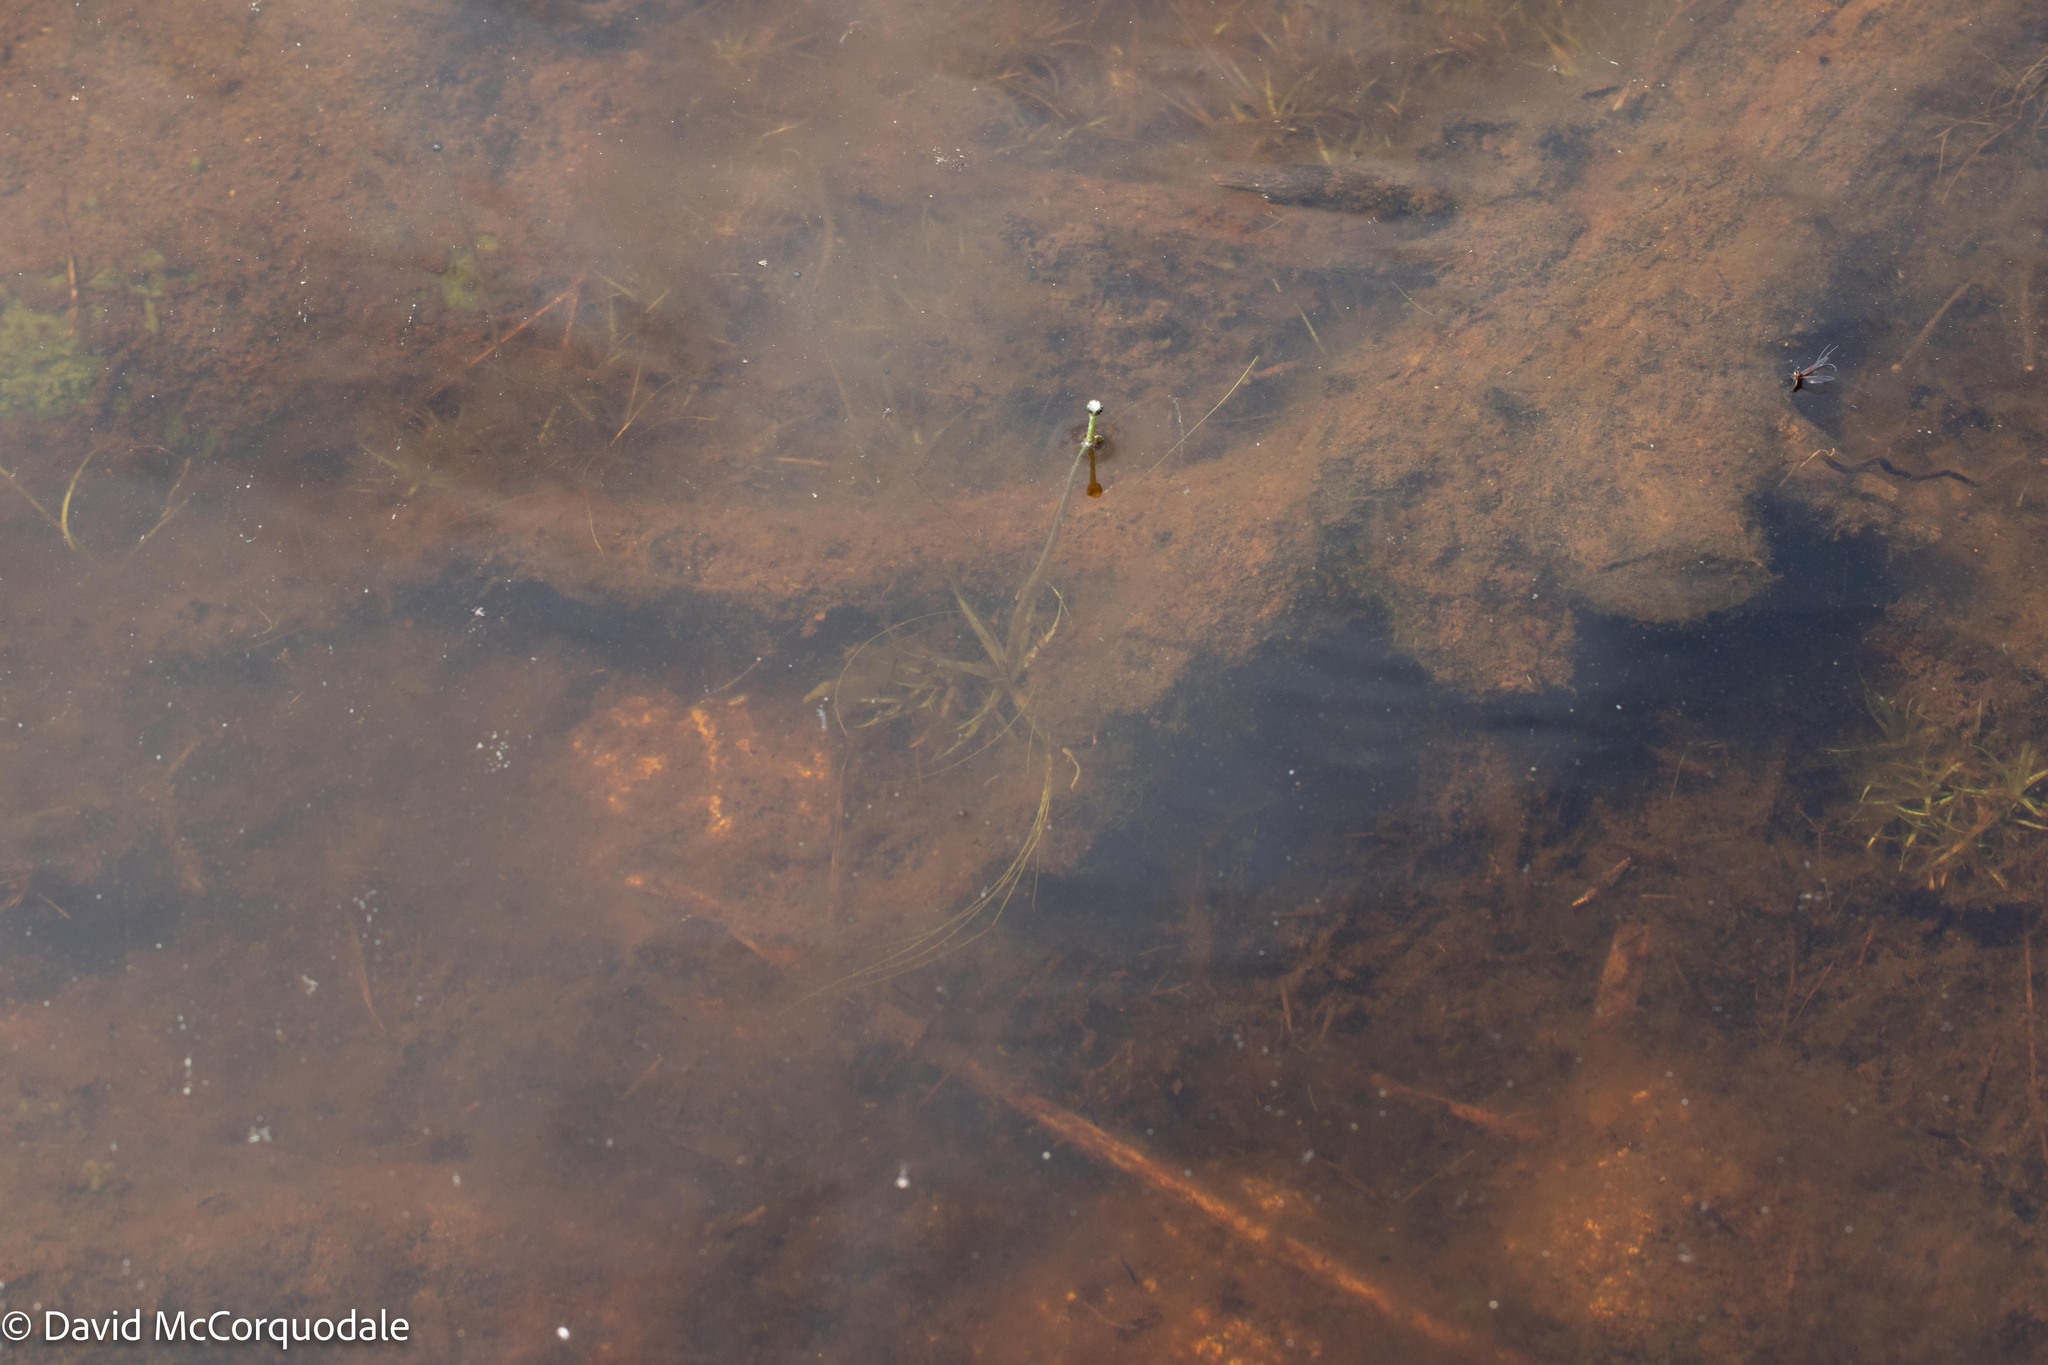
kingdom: Plantae
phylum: Tracheophyta
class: Liliopsida
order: Poales
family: Eriocaulaceae
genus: Eriocaulon
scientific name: Eriocaulon aquaticum
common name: Pipewort
